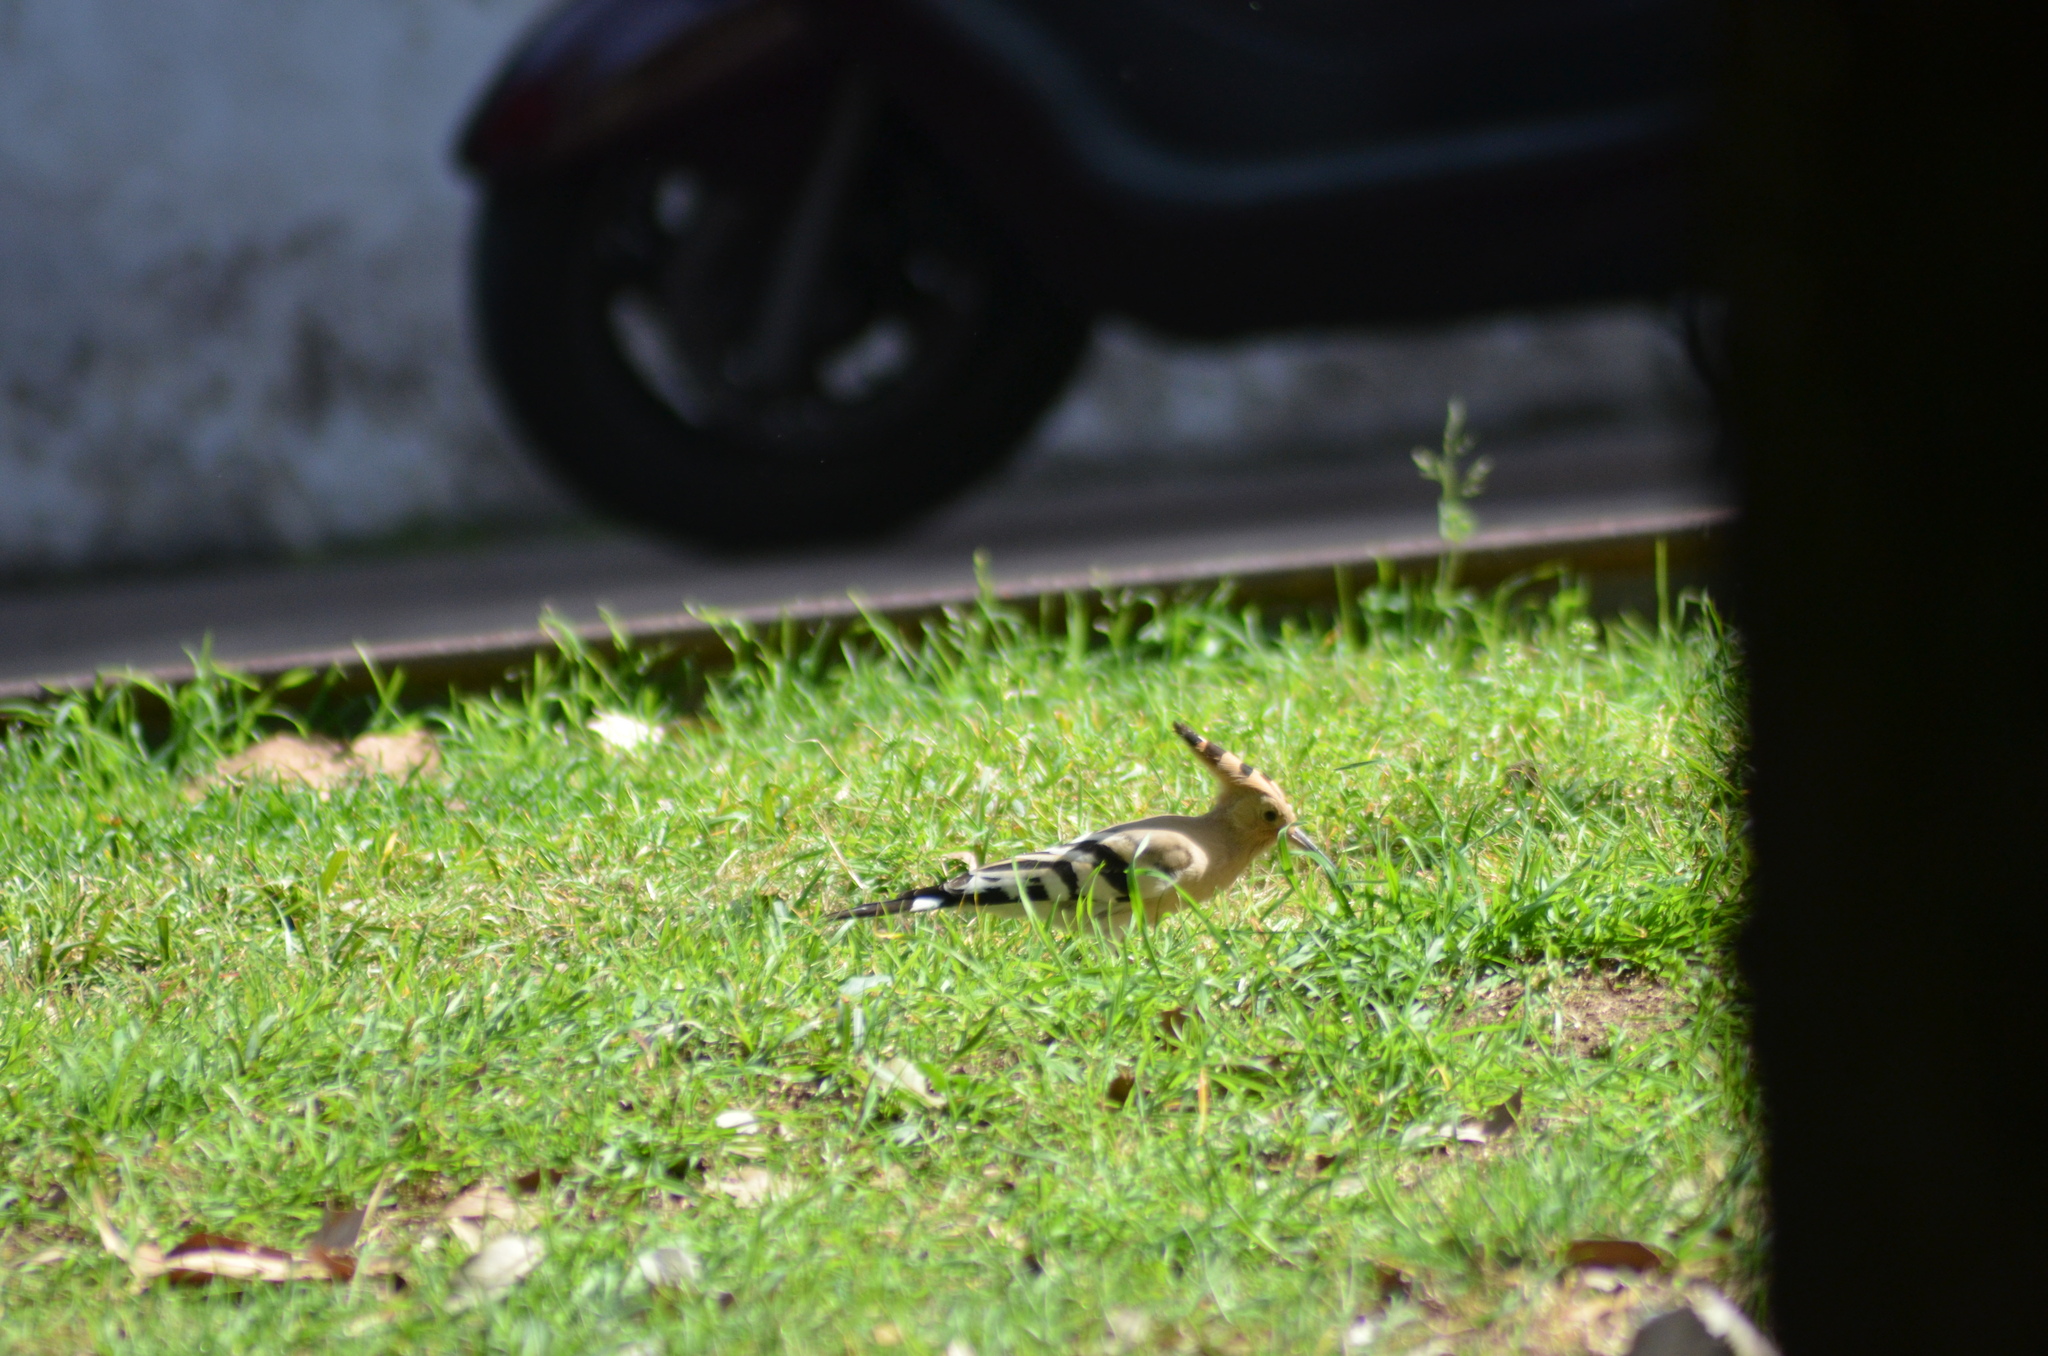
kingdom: Animalia
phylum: Chordata
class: Aves
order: Bucerotiformes
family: Upupidae
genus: Upupa
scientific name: Upupa epops
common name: Eurasian hoopoe
